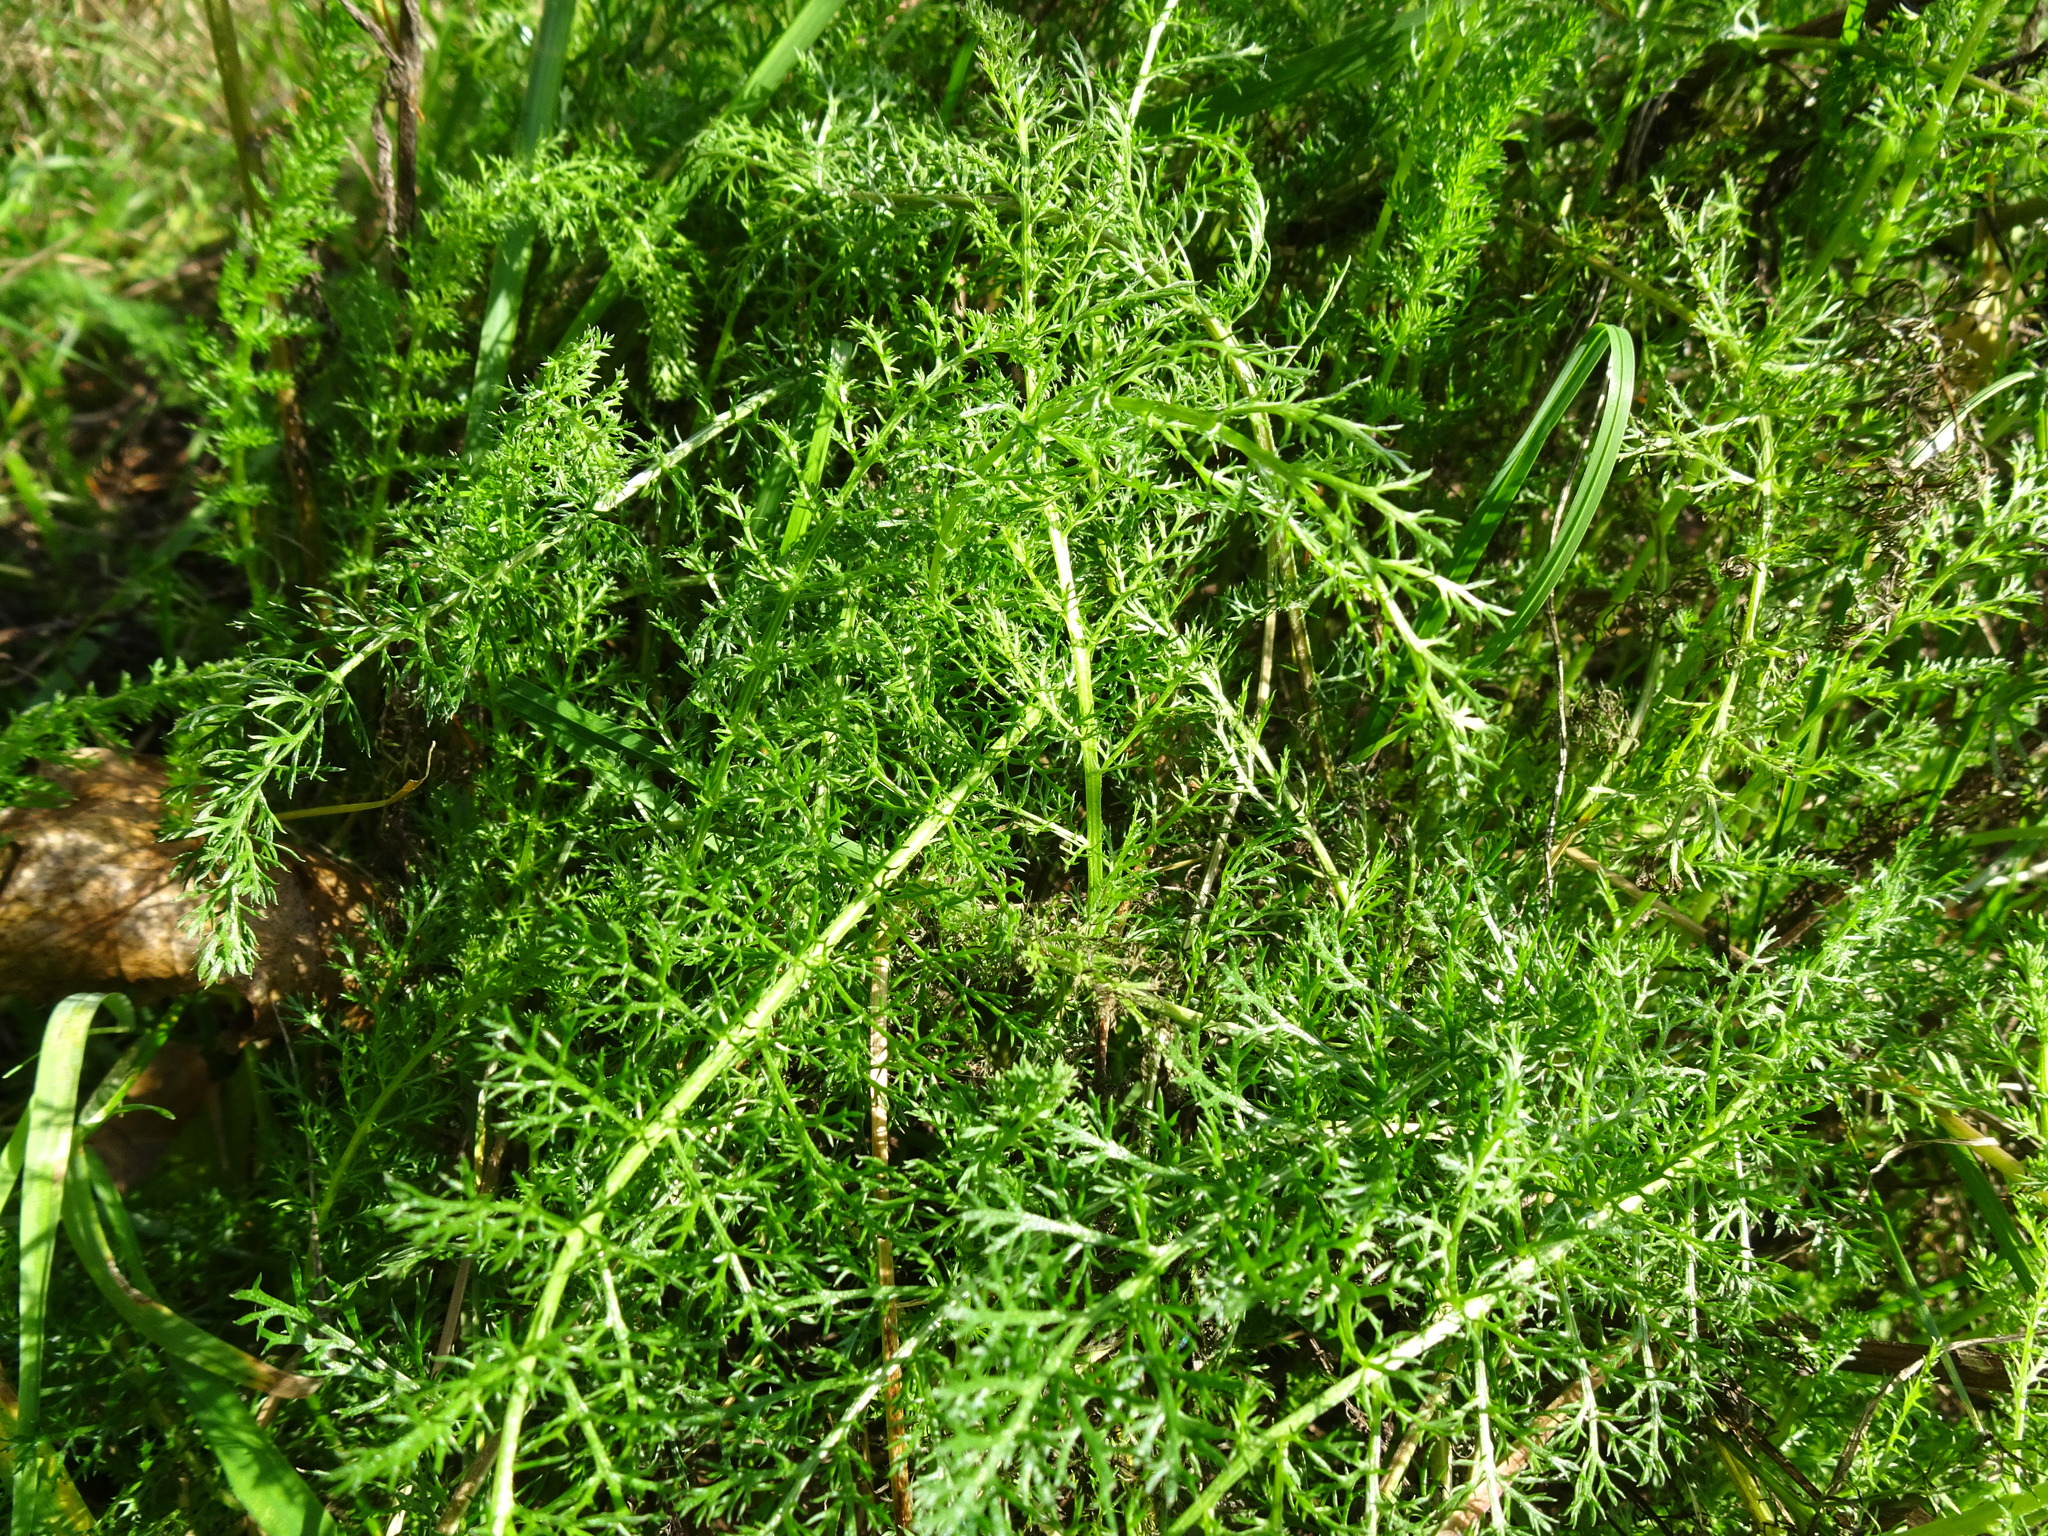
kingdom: Plantae
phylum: Tracheophyta
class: Magnoliopsida
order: Asterales
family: Asteraceae
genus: Achillea
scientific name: Achillea millefolium
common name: Yarrow
